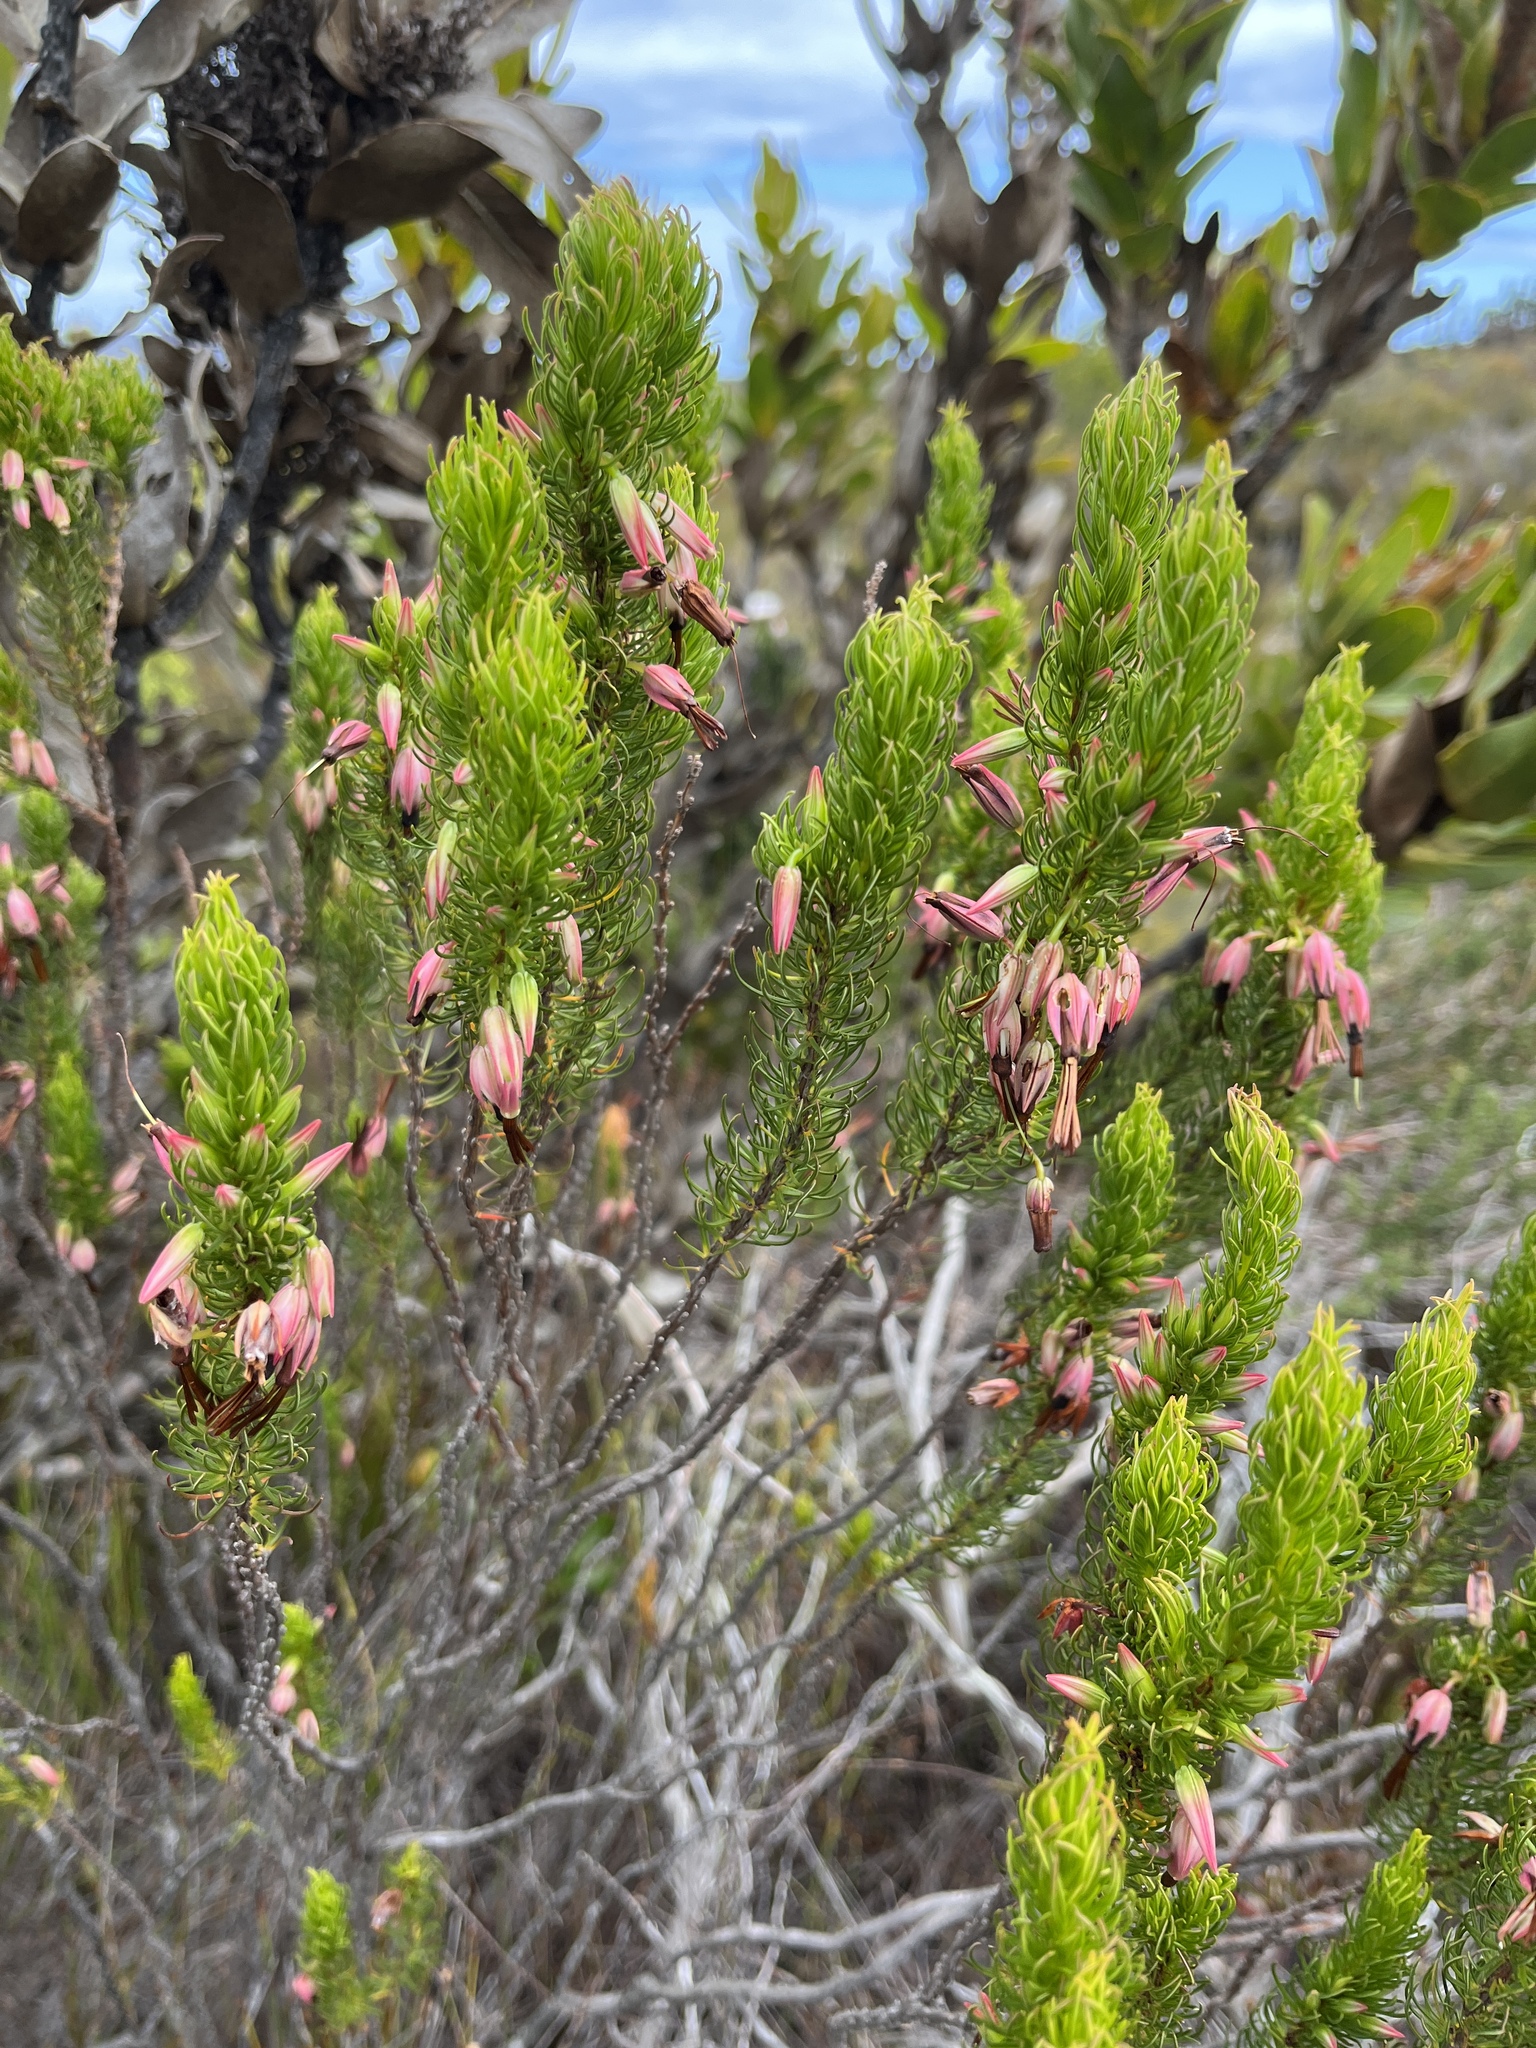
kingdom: Plantae
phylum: Tracheophyta
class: Magnoliopsida
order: Ericales
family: Ericaceae
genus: Erica
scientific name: Erica plukenetii
